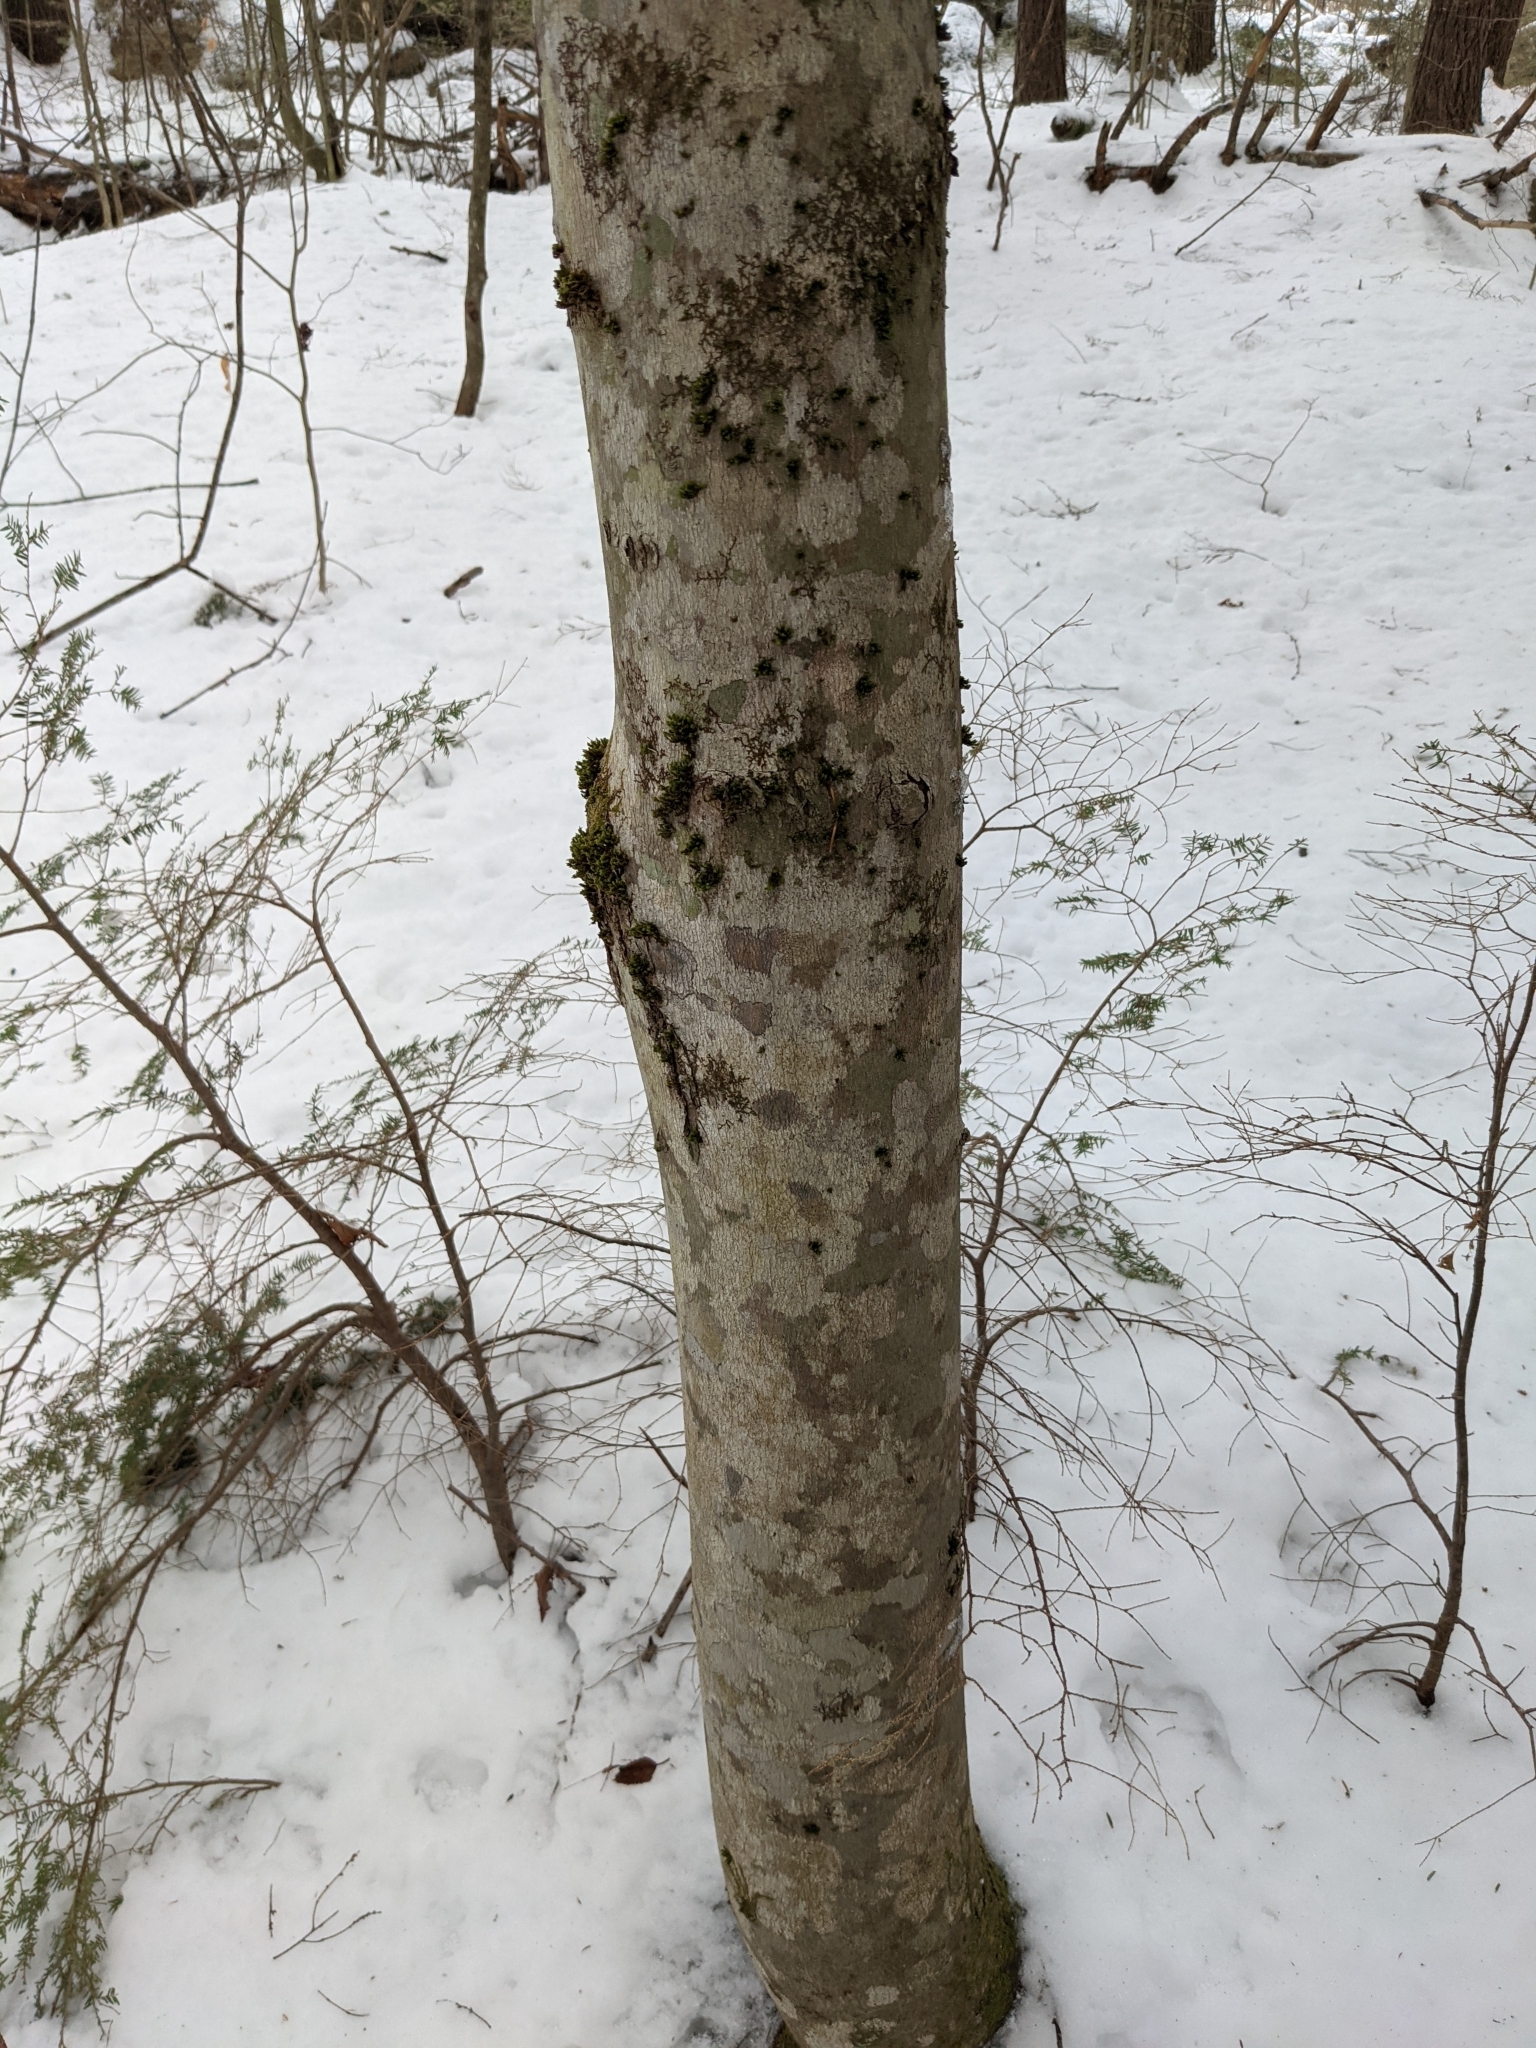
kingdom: Plantae
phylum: Tracheophyta
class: Magnoliopsida
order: Fagales
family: Fagaceae
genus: Fagus
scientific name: Fagus grandifolia
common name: American beech
